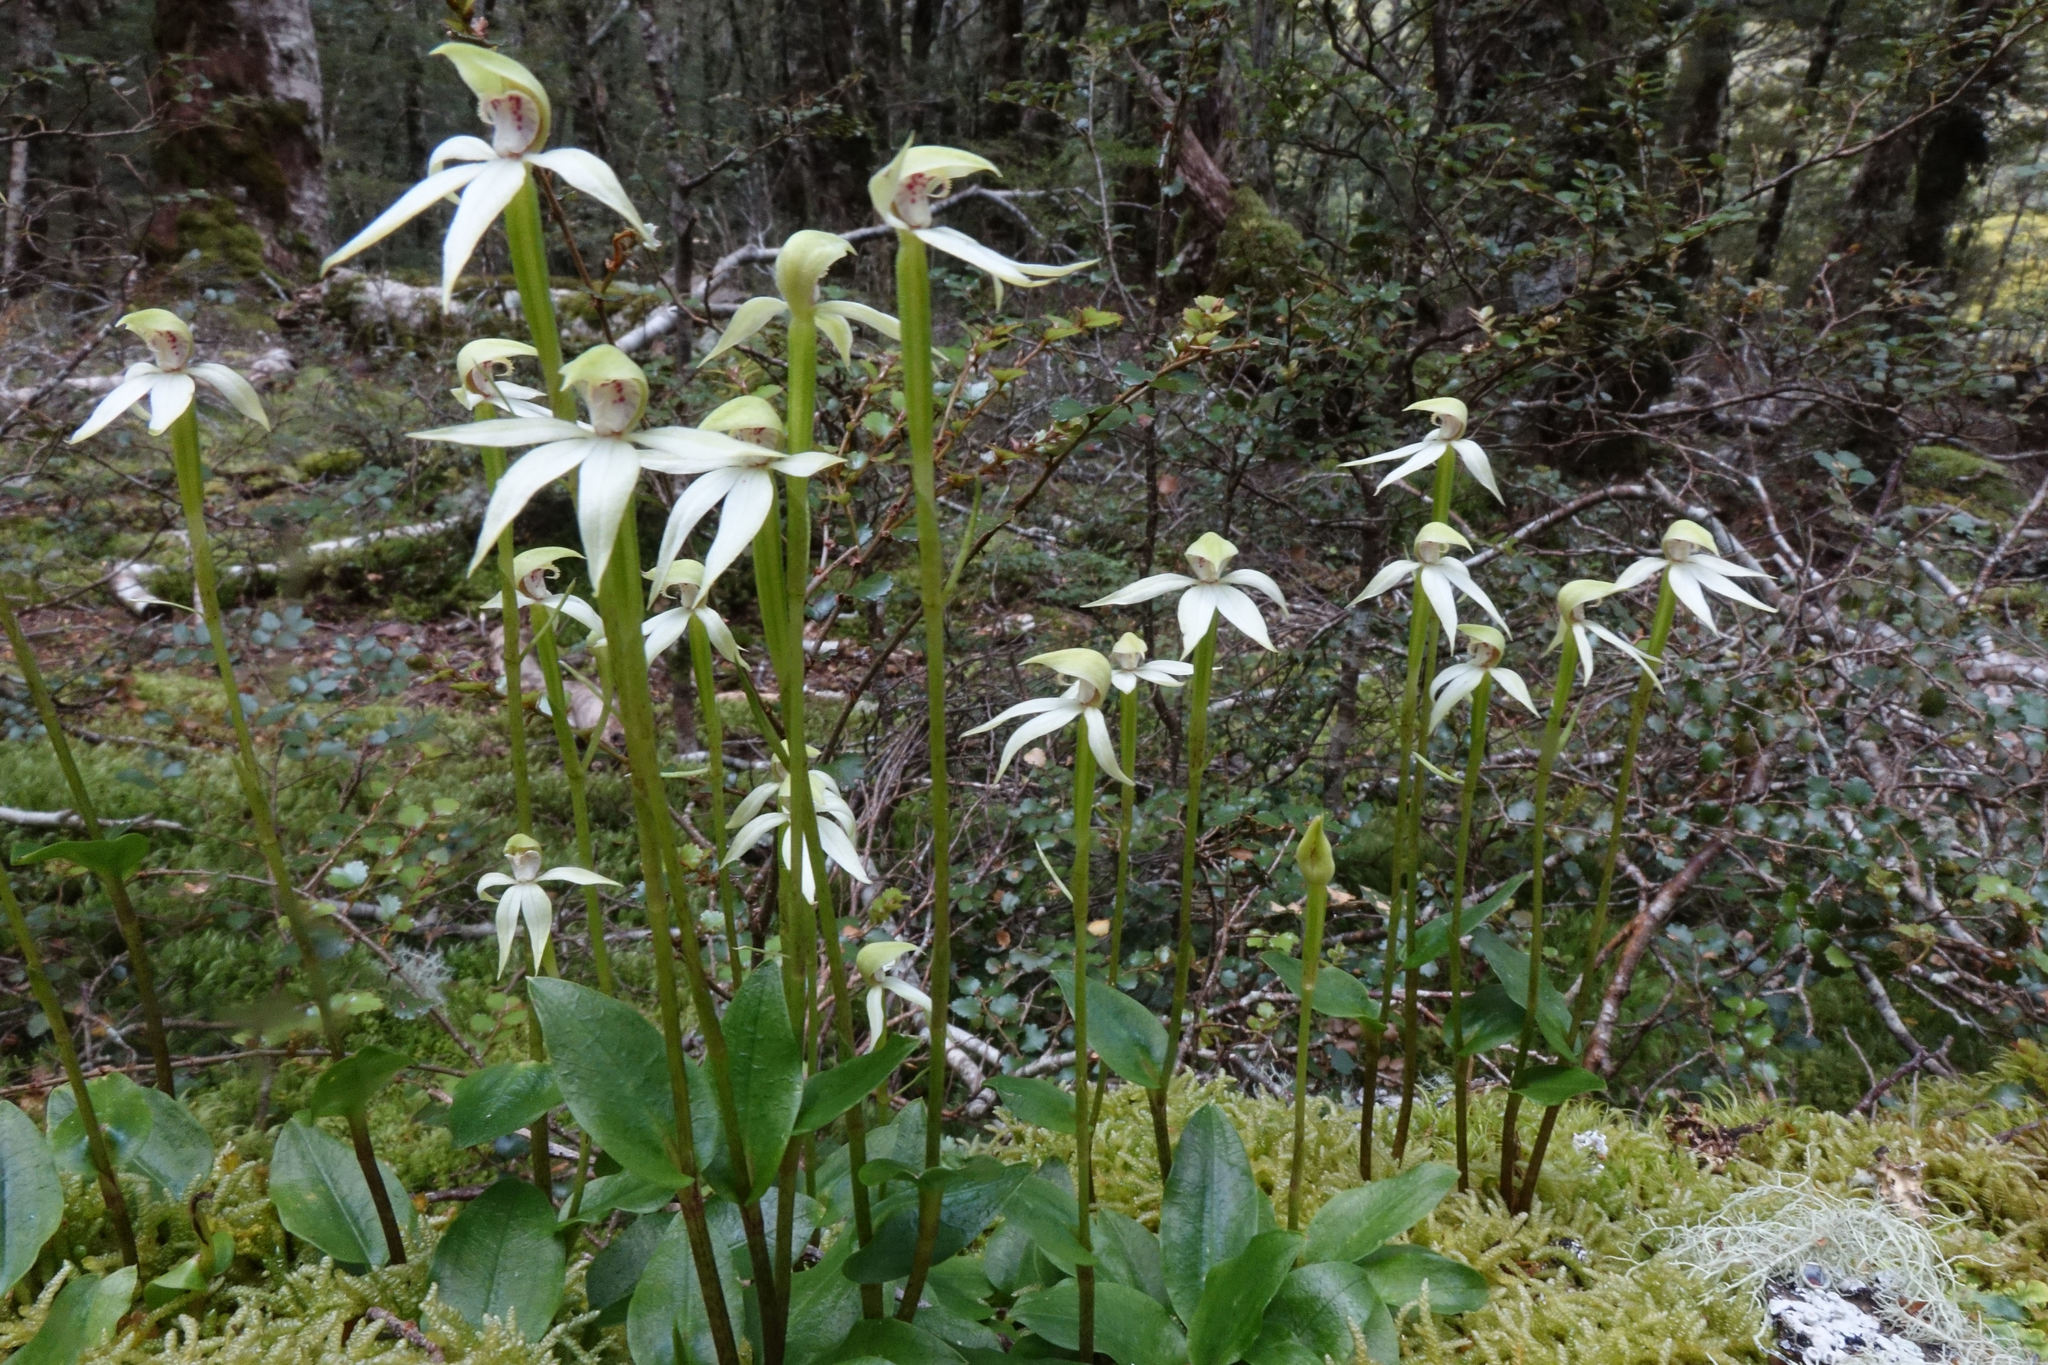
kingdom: Plantae
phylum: Tracheophyta
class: Liliopsida
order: Asparagales
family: Orchidaceae
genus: Adenochilus
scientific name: Adenochilus gracilis
